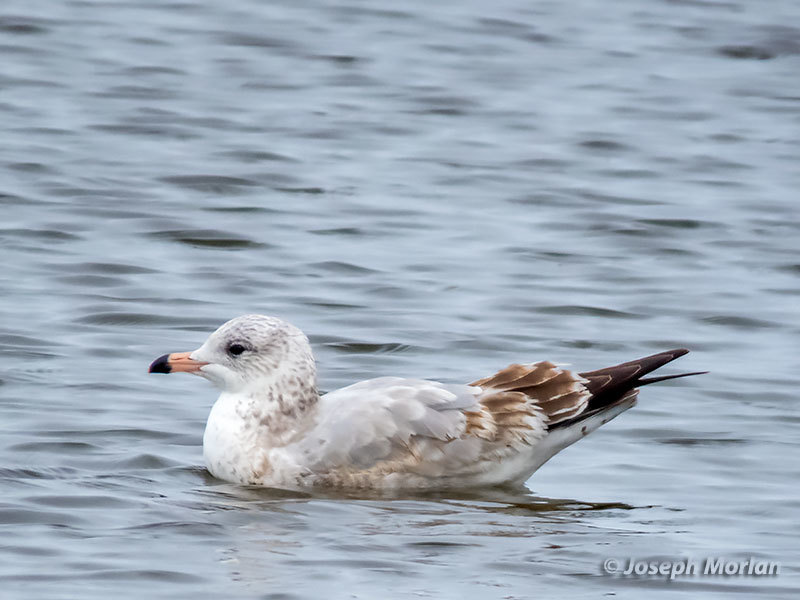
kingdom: Animalia
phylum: Chordata
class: Aves
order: Charadriiformes
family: Laridae
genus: Larus
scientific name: Larus delawarensis
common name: Ring-billed gull
